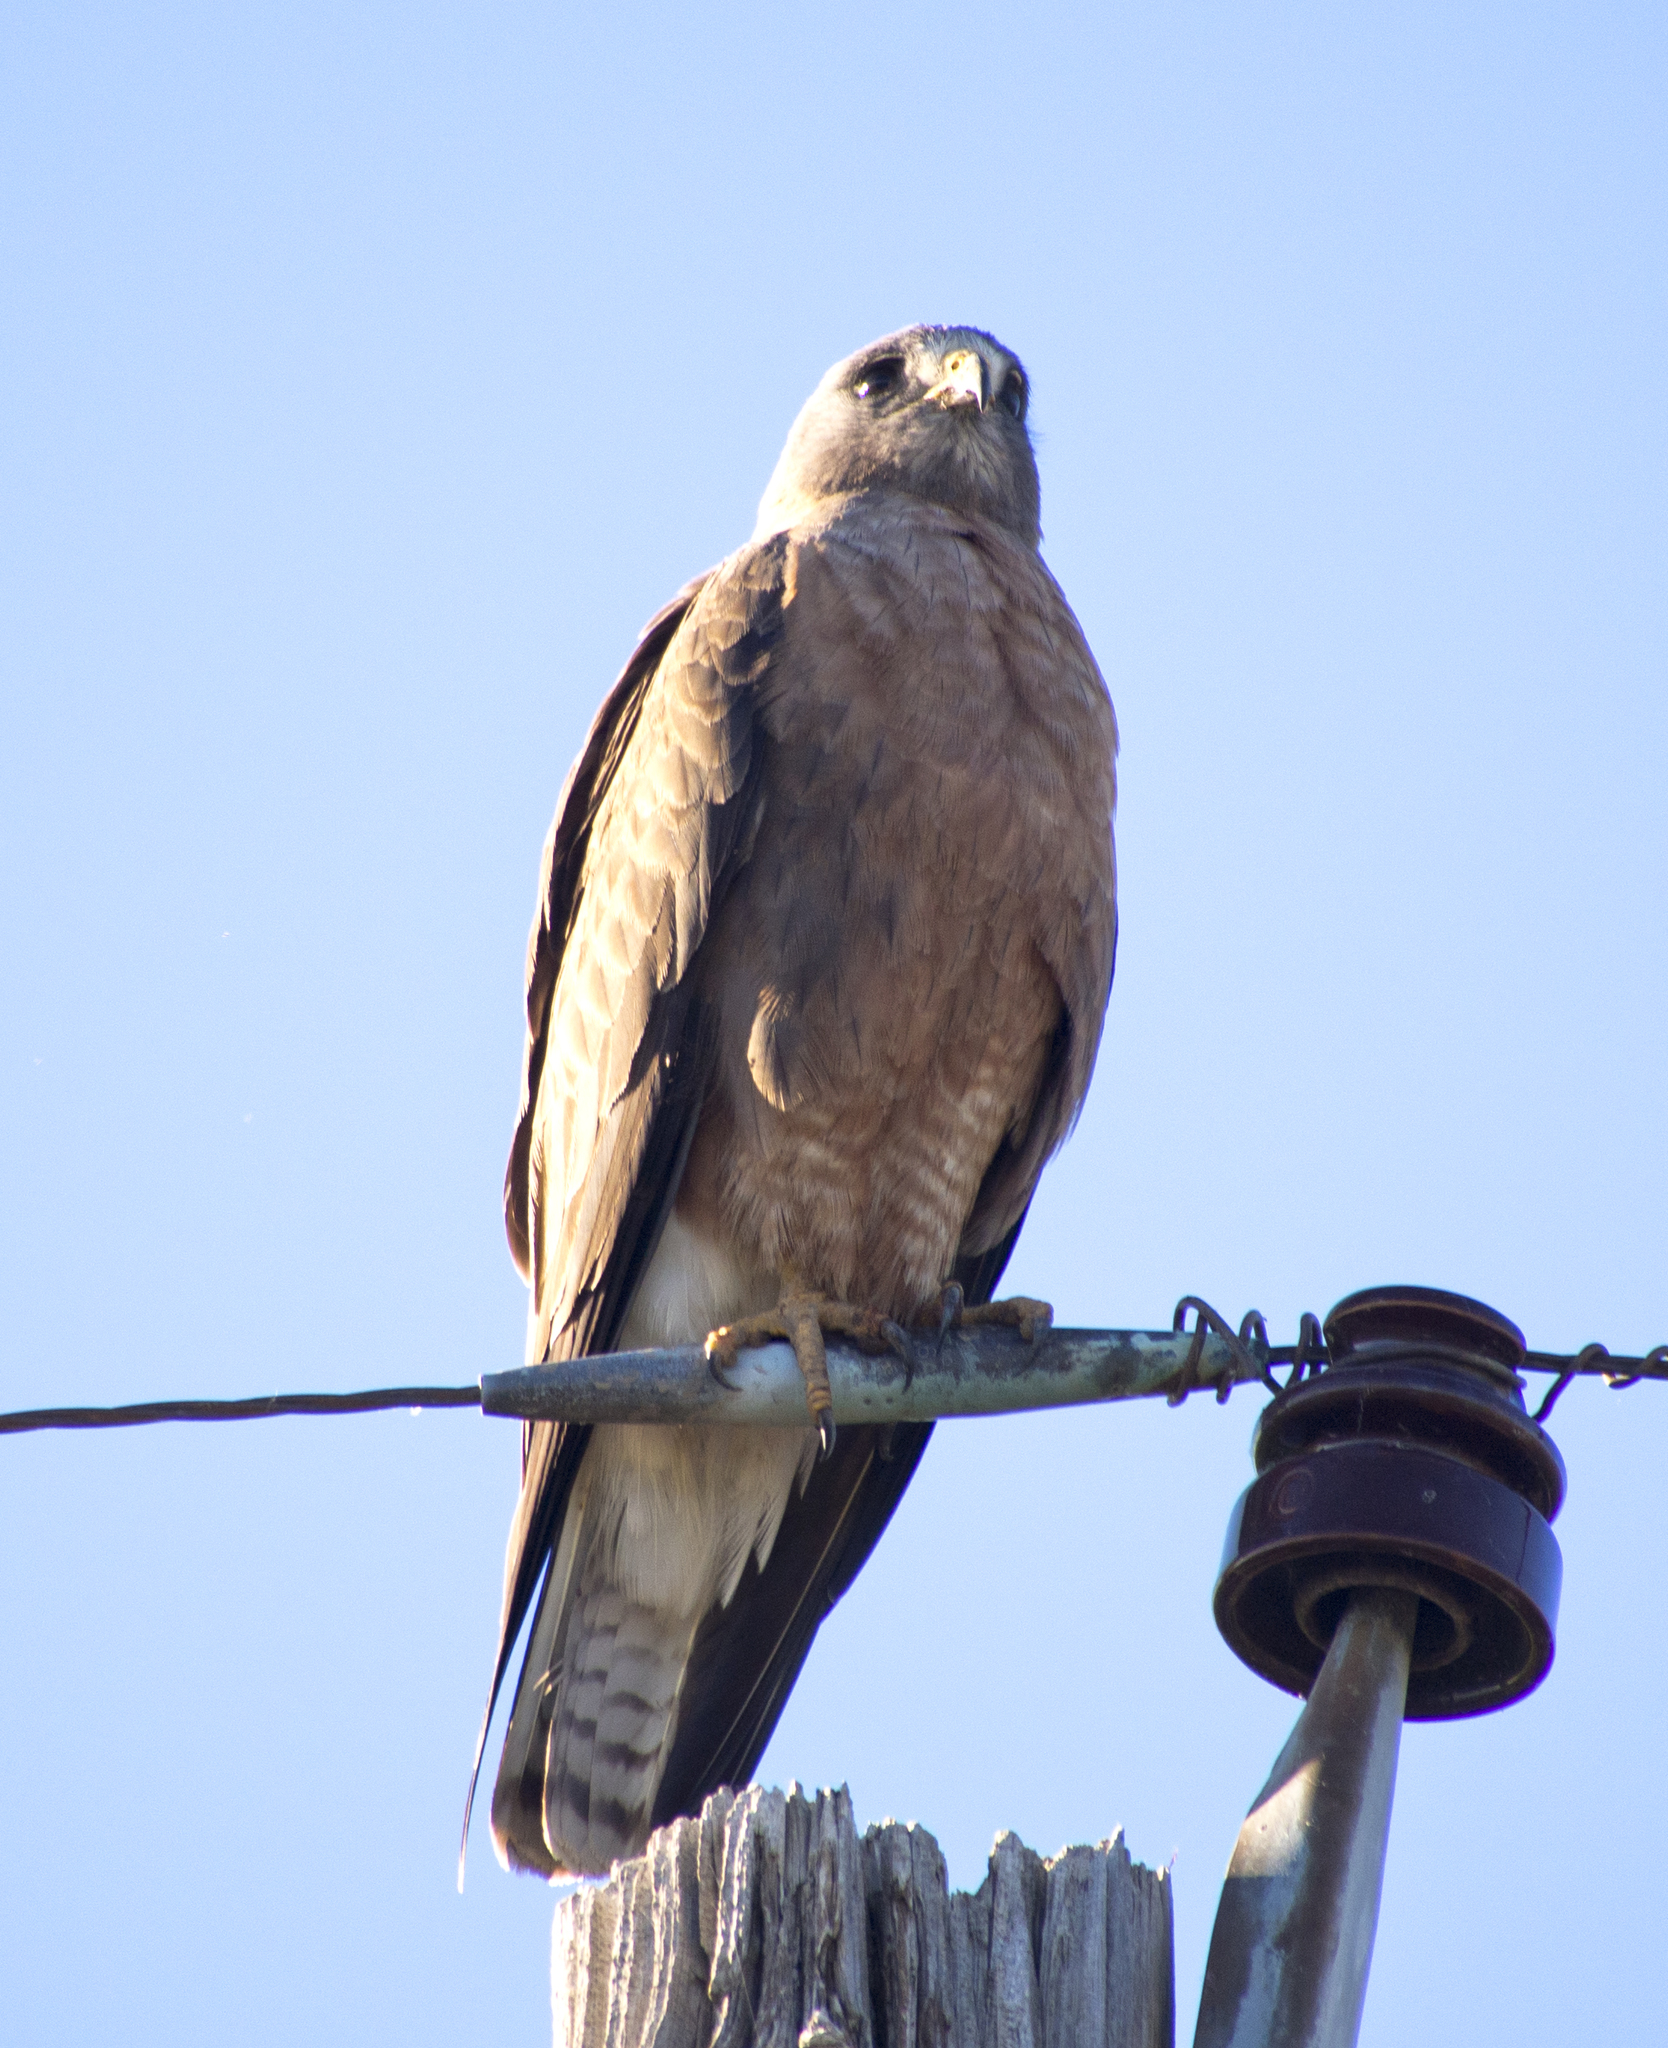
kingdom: Animalia
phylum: Chordata
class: Aves
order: Accipitriformes
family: Accipitridae
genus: Buteo
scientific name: Buteo swainsoni
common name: Swainson's hawk
